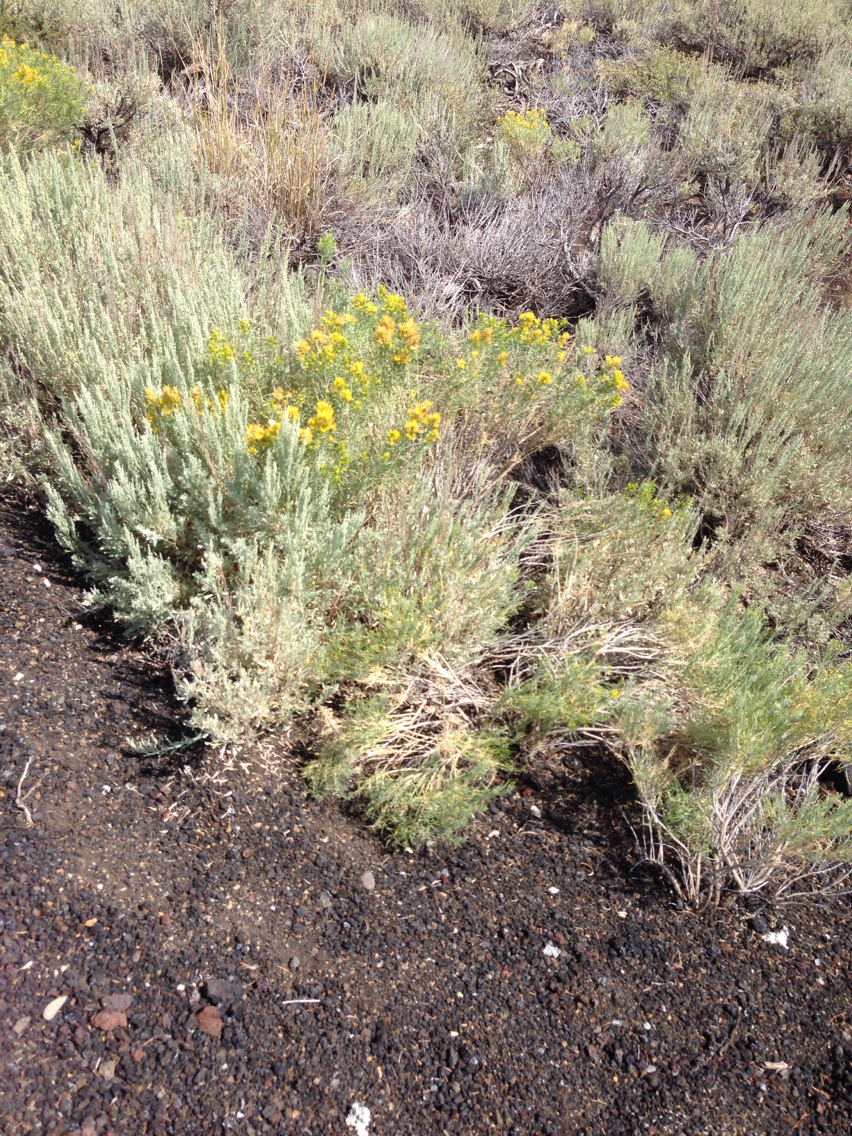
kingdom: Plantae
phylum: Tracheophyta
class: Magnoliopsida
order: Asterales
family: Asteraceae
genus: Chrysothamnus
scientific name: Chrysothamnus viscidiflorus
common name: Yellow rabbitbrush
